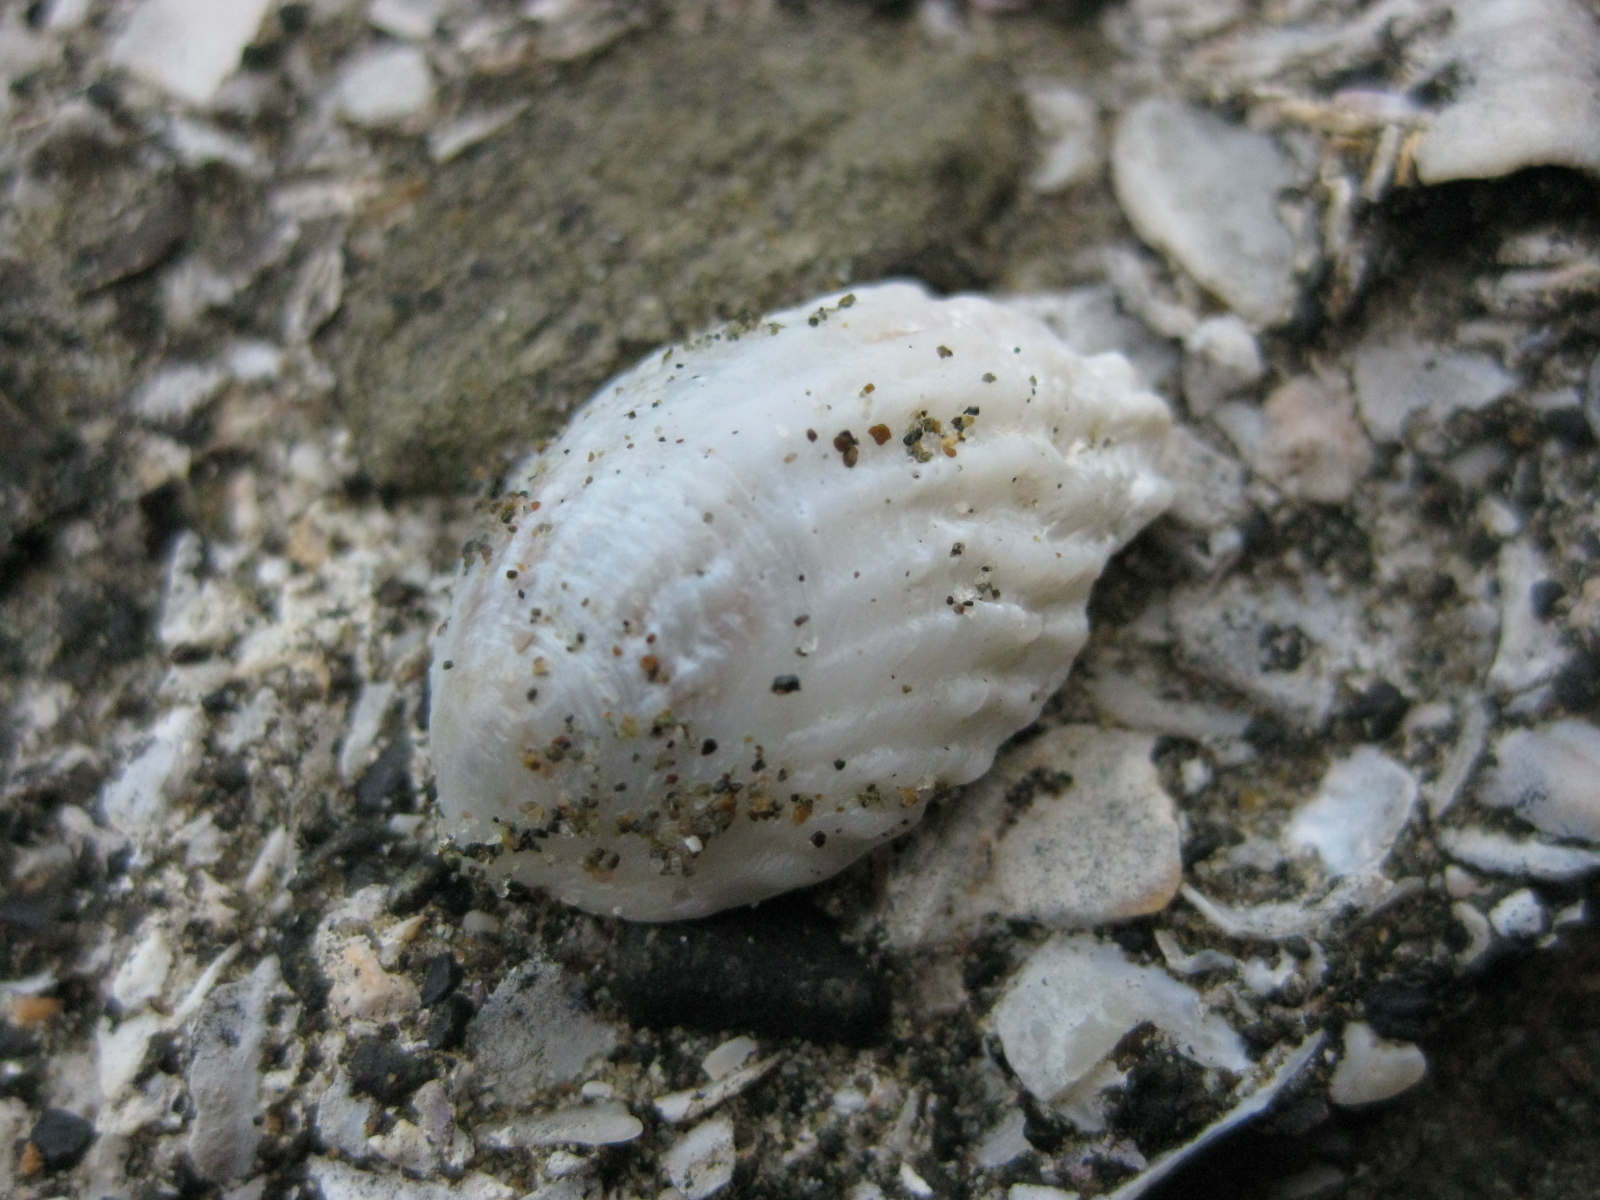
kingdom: Animalia
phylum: Mollusca
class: Gastropoda
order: Littorinimorpha
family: Calyptraeidae
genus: Maoricrypta
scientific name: Maoricrypta costata
